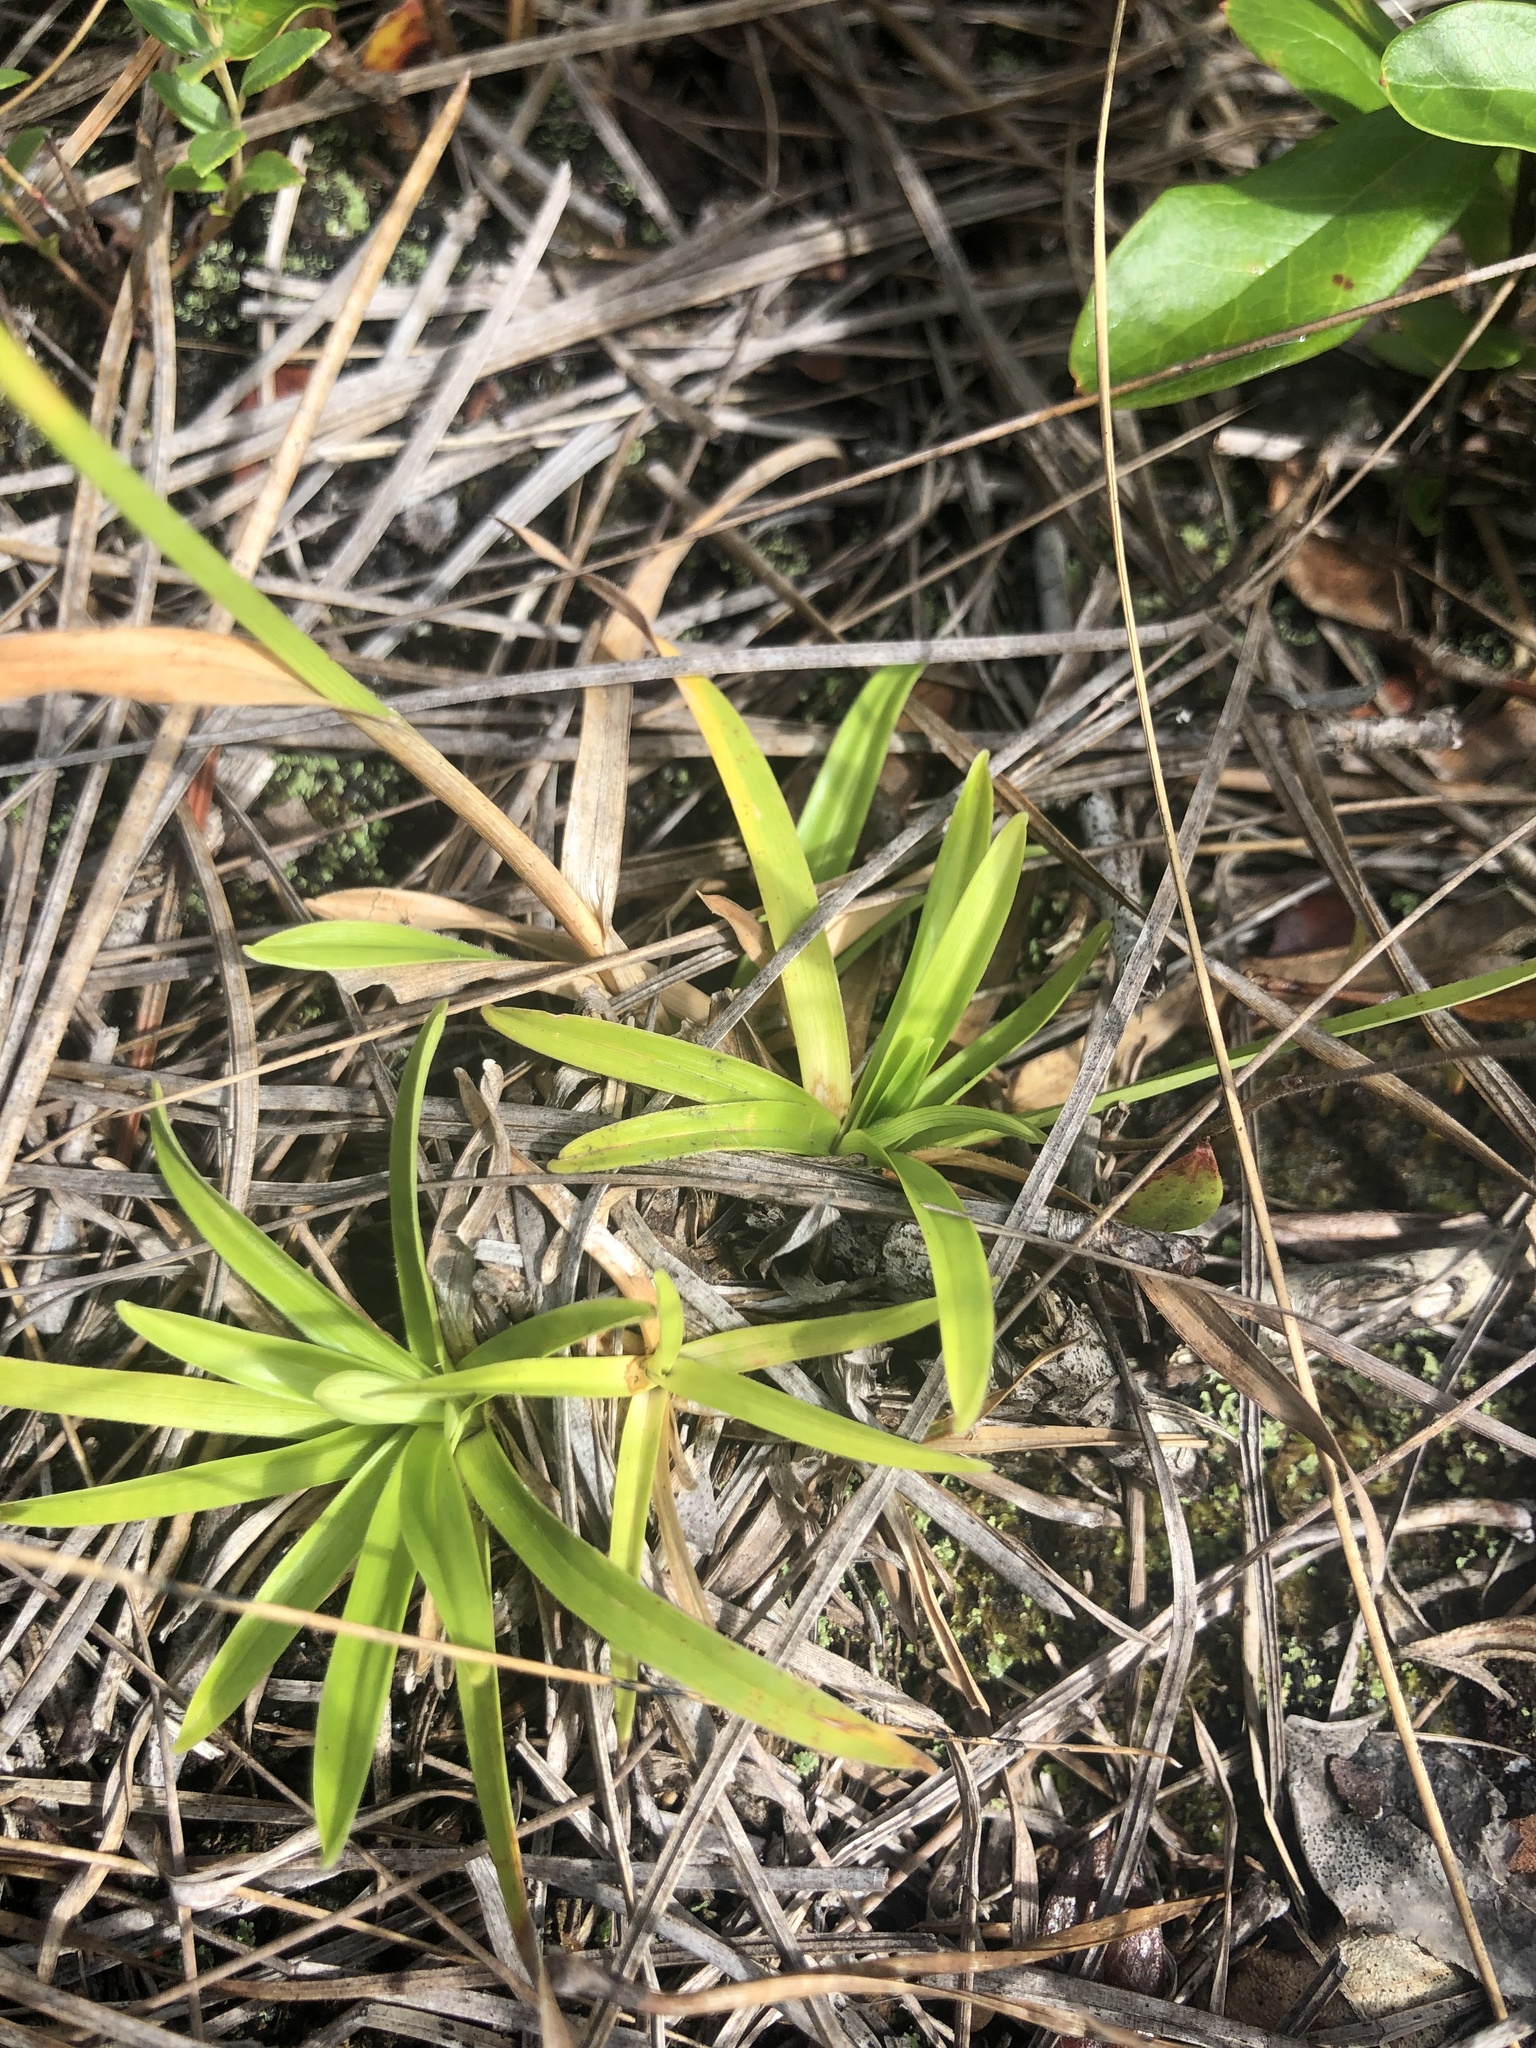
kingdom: Plantae
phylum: Tracheophyta
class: Liliopsida
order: Poales
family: Cyperaceae
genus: Rhynchospora
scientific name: Rhynchospora ciliaris
